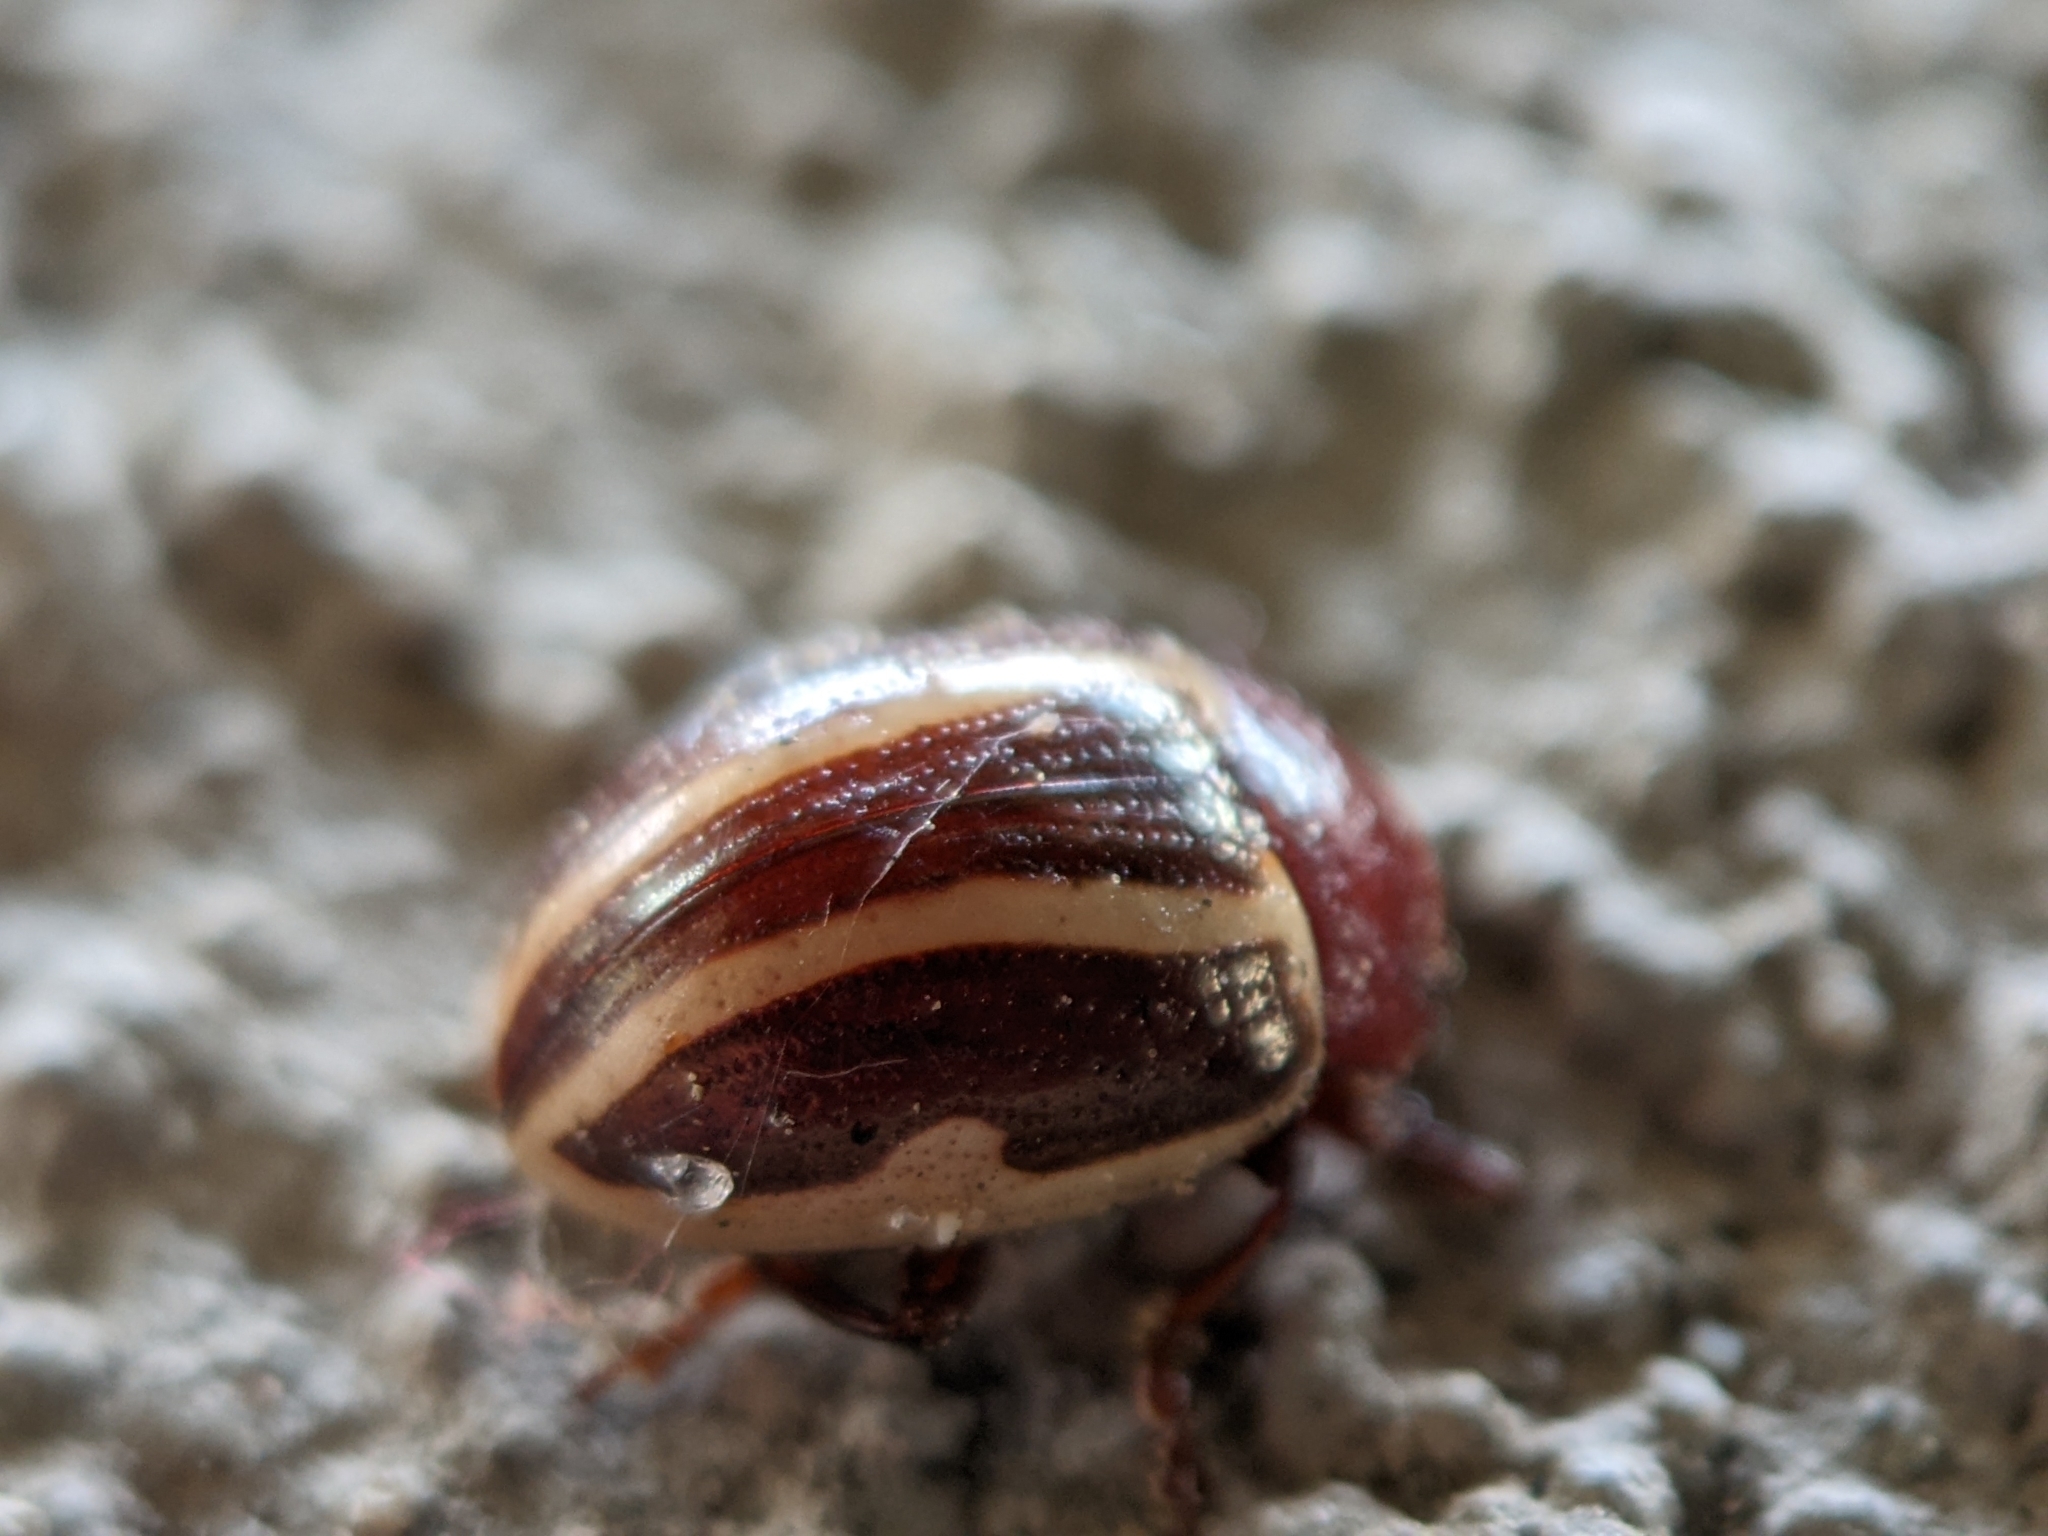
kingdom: Animalia
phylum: Arthropoda
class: Insecta
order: Coleoptera
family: Chrysomelidae
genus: Calligrapha
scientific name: Calligrapha bidenticola
